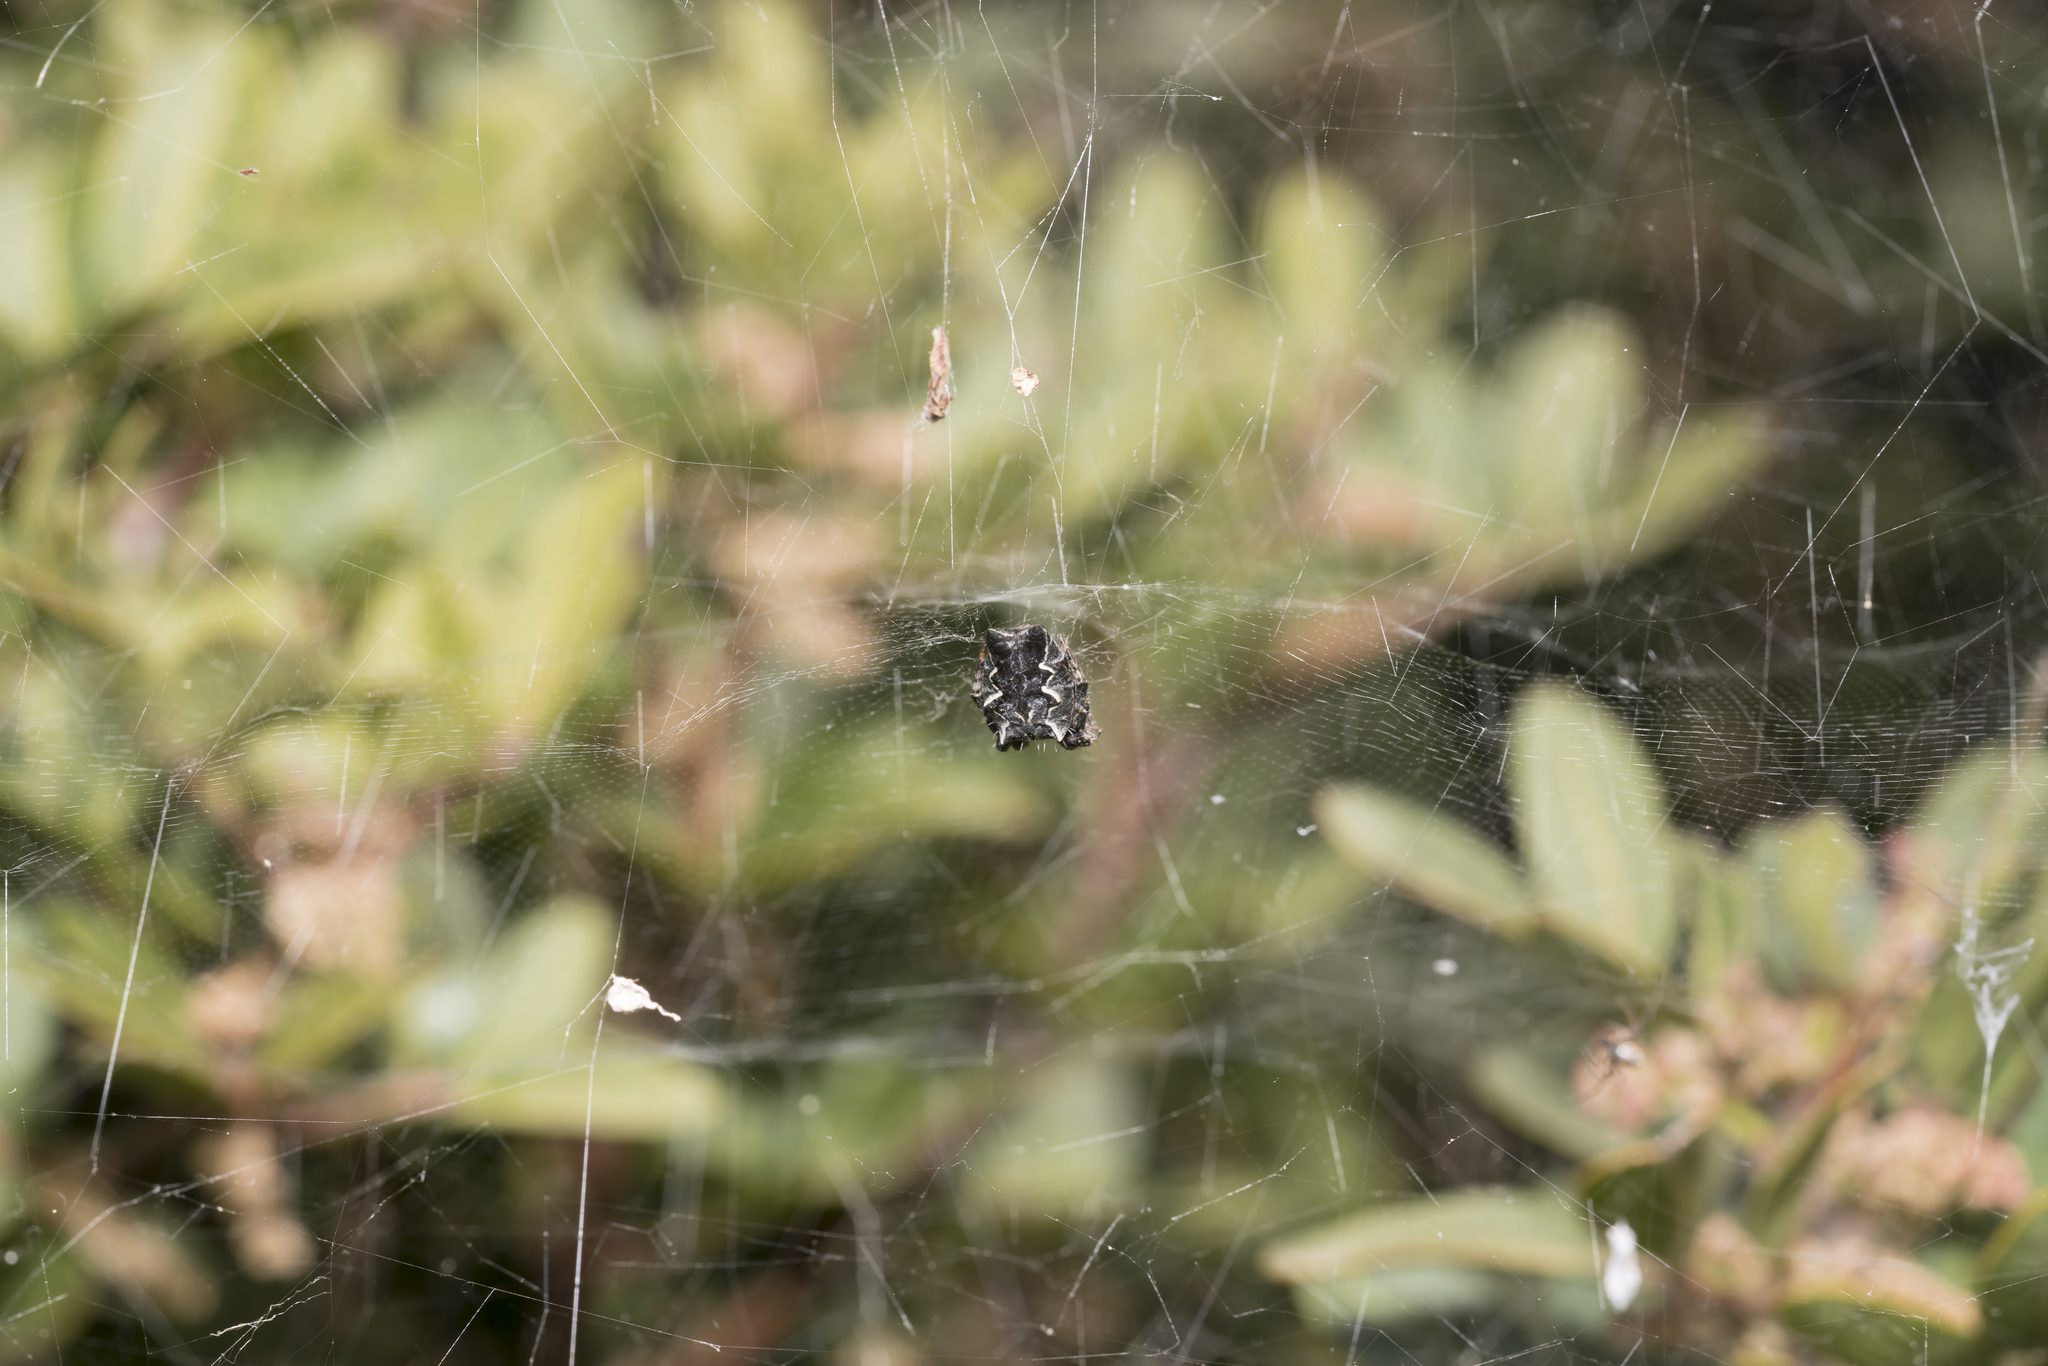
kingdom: Animalia
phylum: Arthropoda
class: Arachnida
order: Araneae
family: Araneidae
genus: Cyrtophora
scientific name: Cyrtophora citricola
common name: Orb weavers
